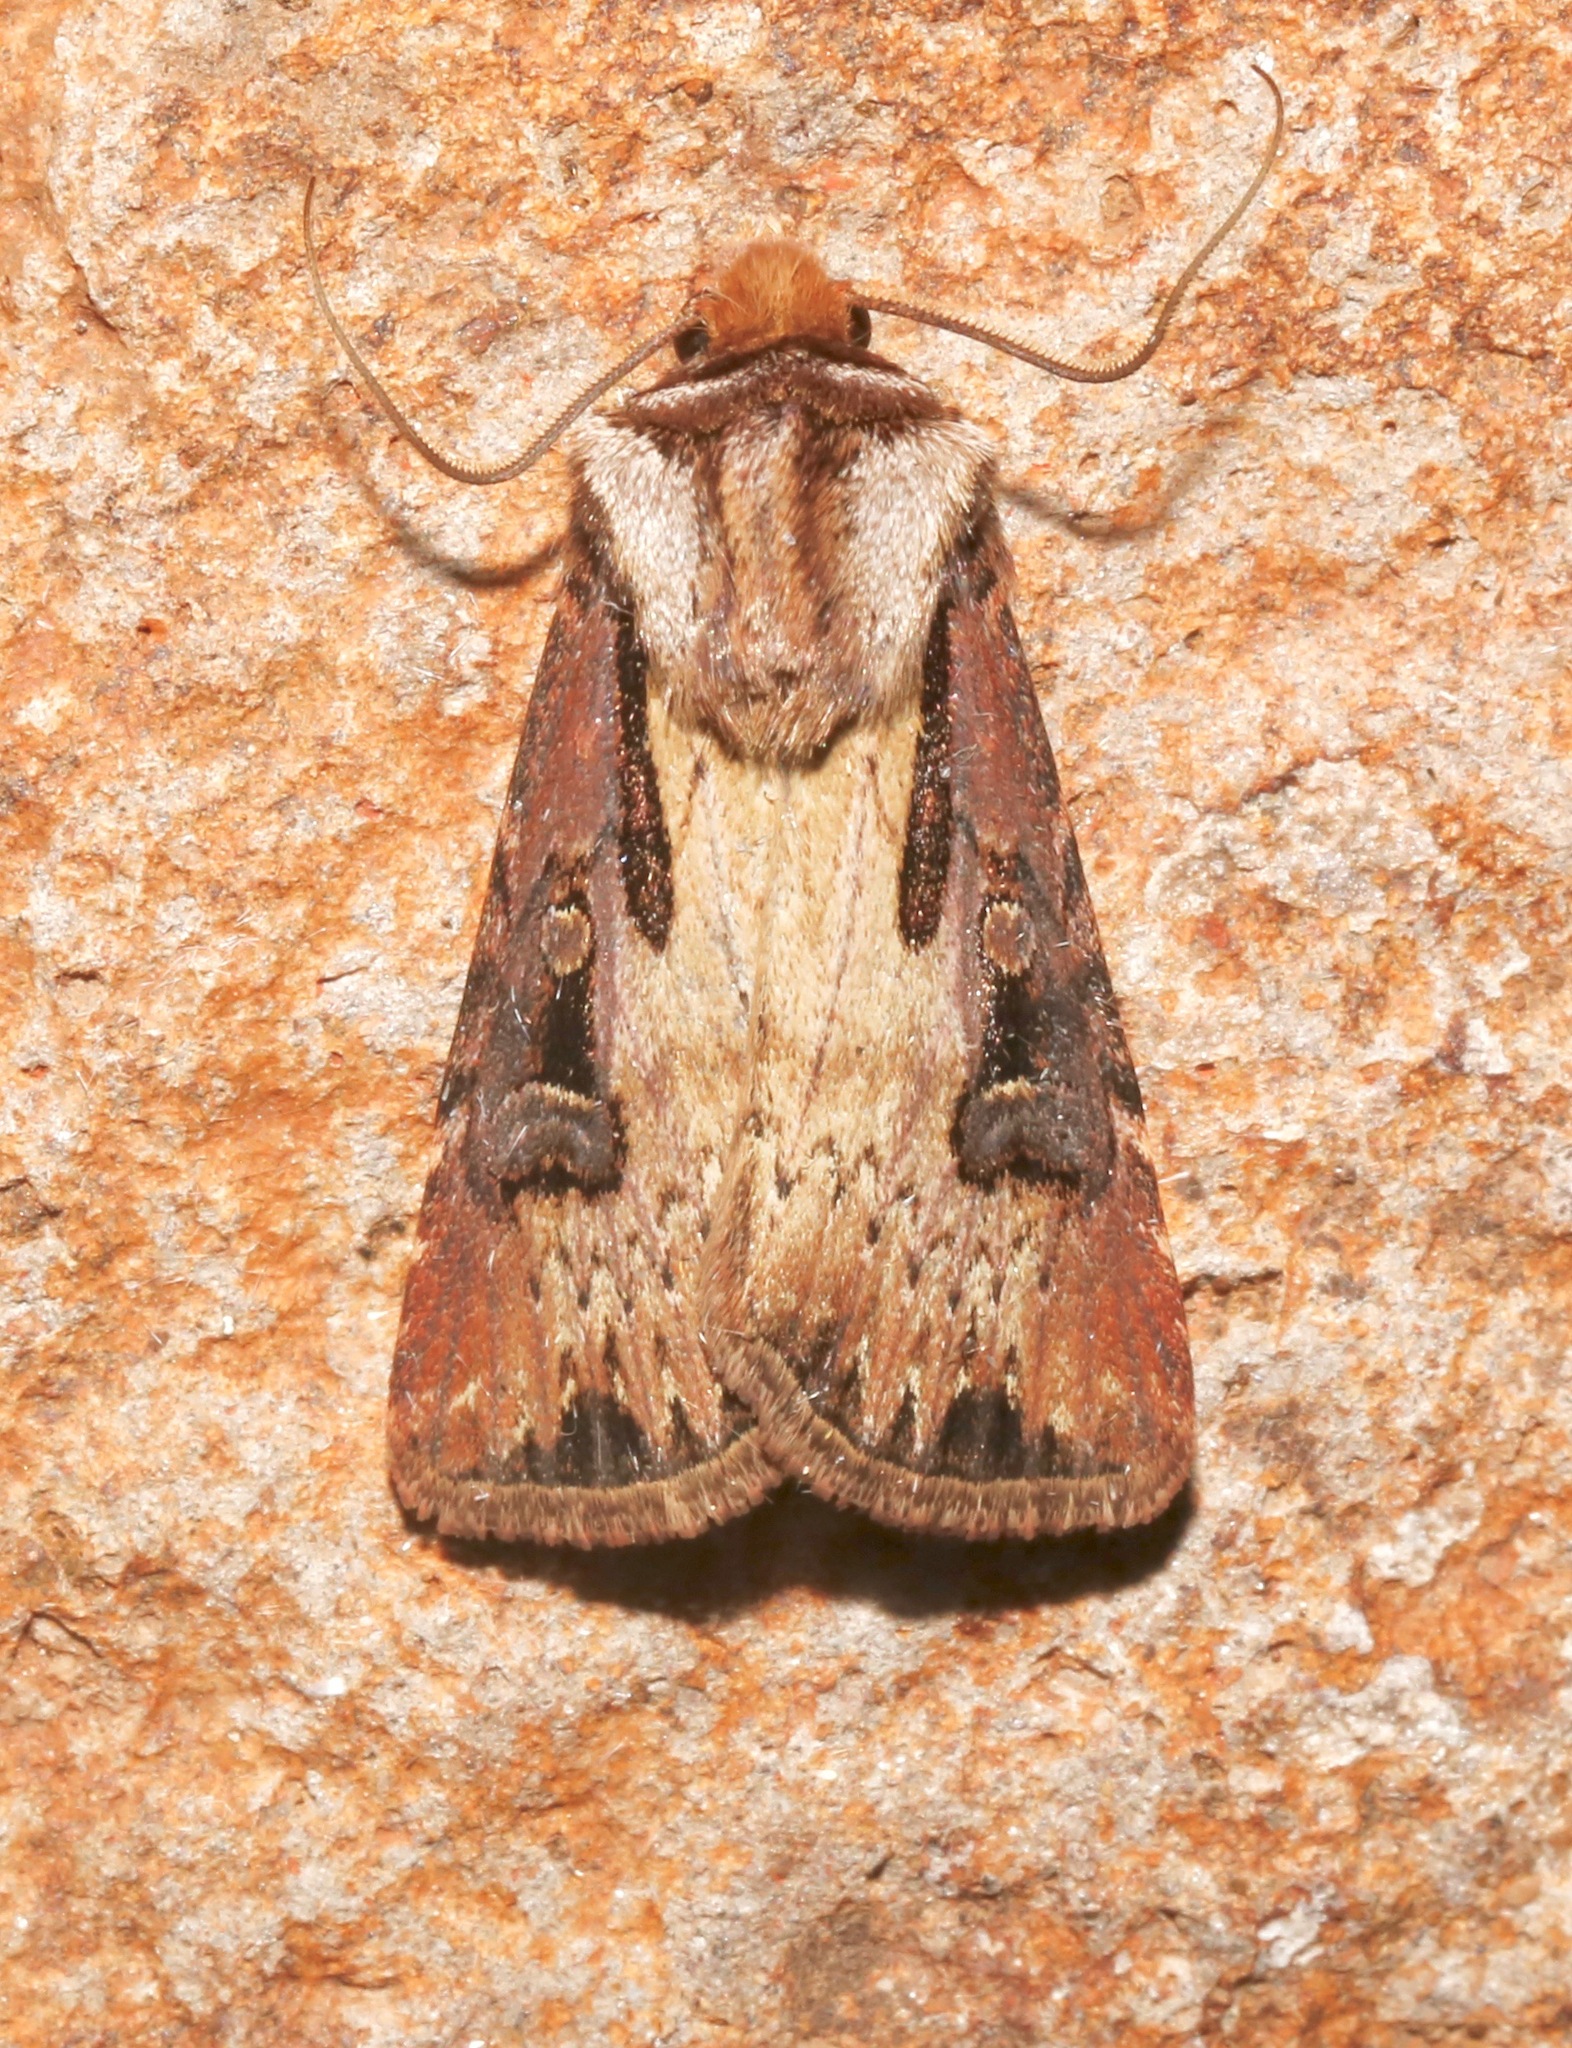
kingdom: Animalia
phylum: Arthropoda
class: Insecta
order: Lepidoptera
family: Noctuidae
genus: Agrotis
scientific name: Agrotis vancouverensis
